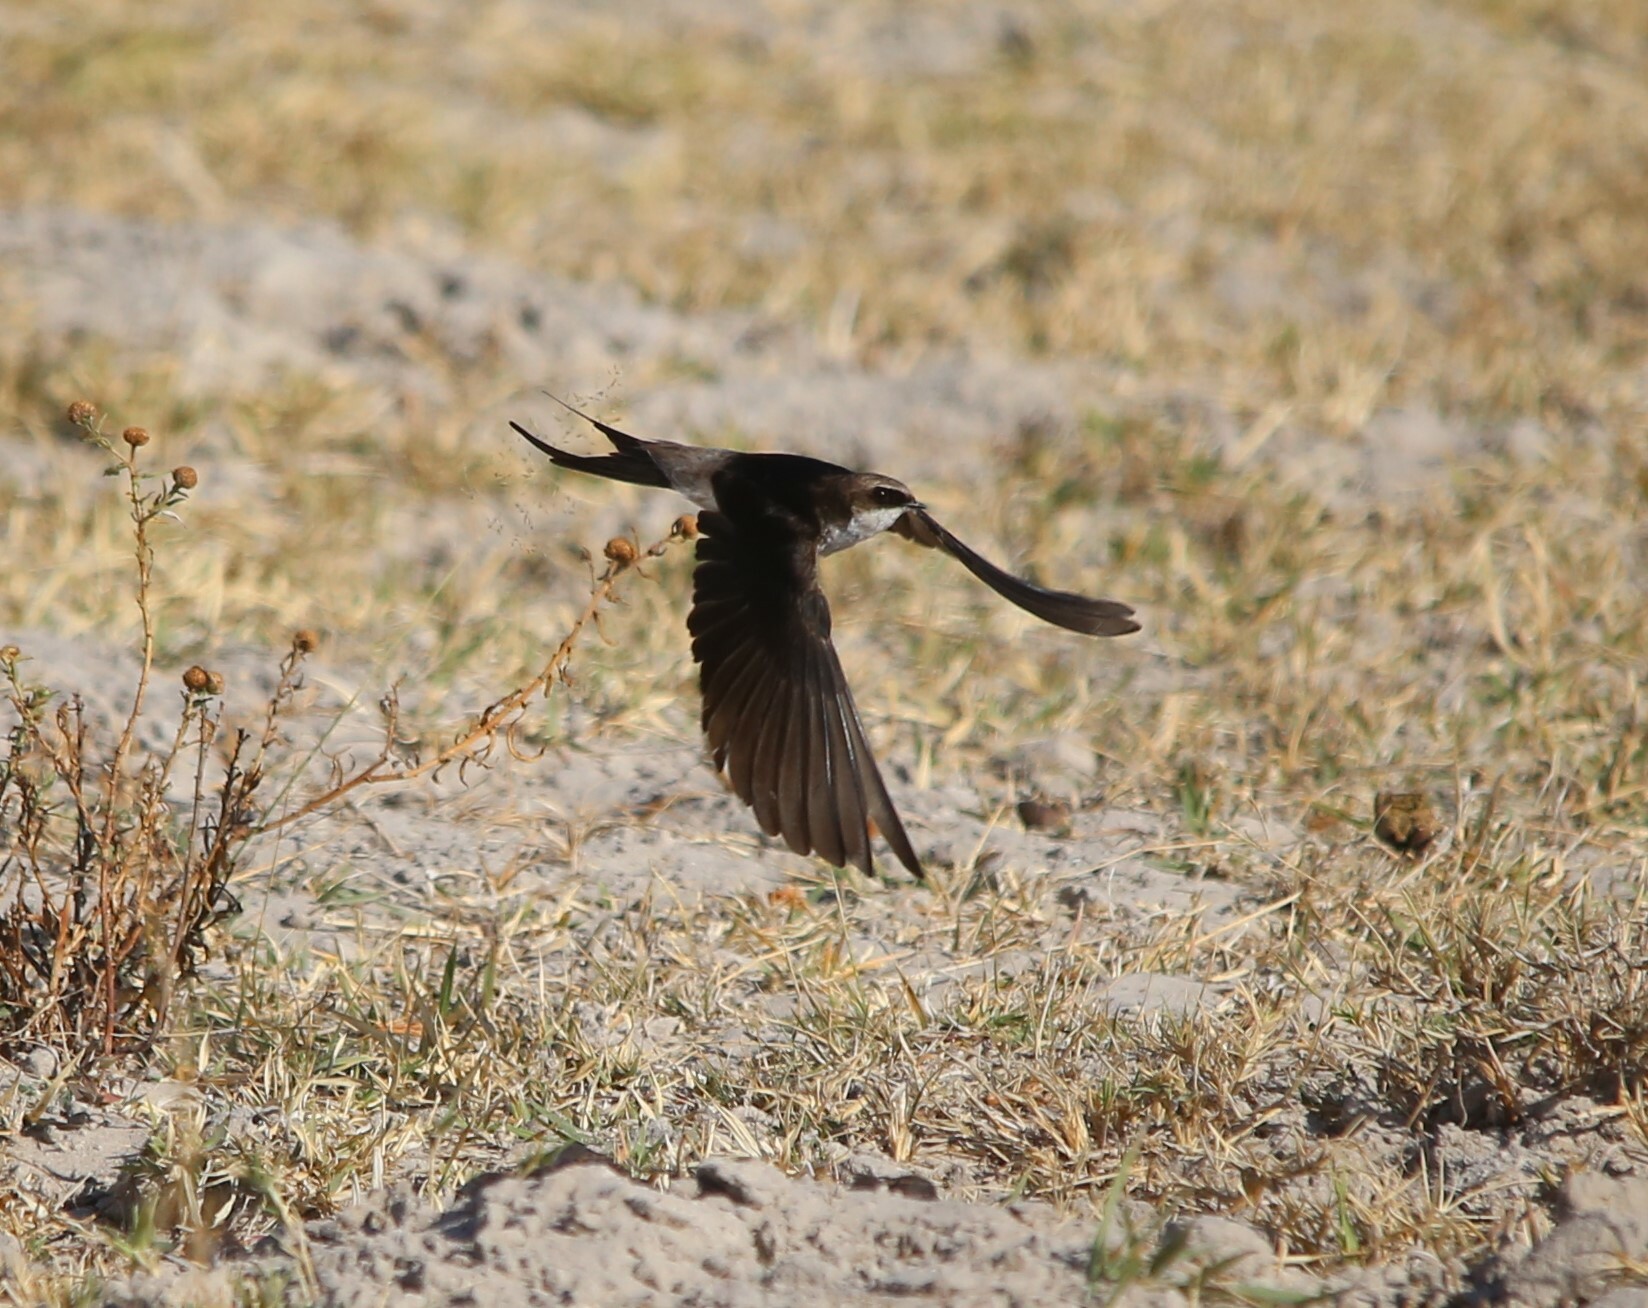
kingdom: Animalia
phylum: Chordata
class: Aves
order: Passeriformes
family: Hirundinidae
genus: Pseudhirundo
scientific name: Pseudhirundo griseopyga
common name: Grey-rumped swallow
